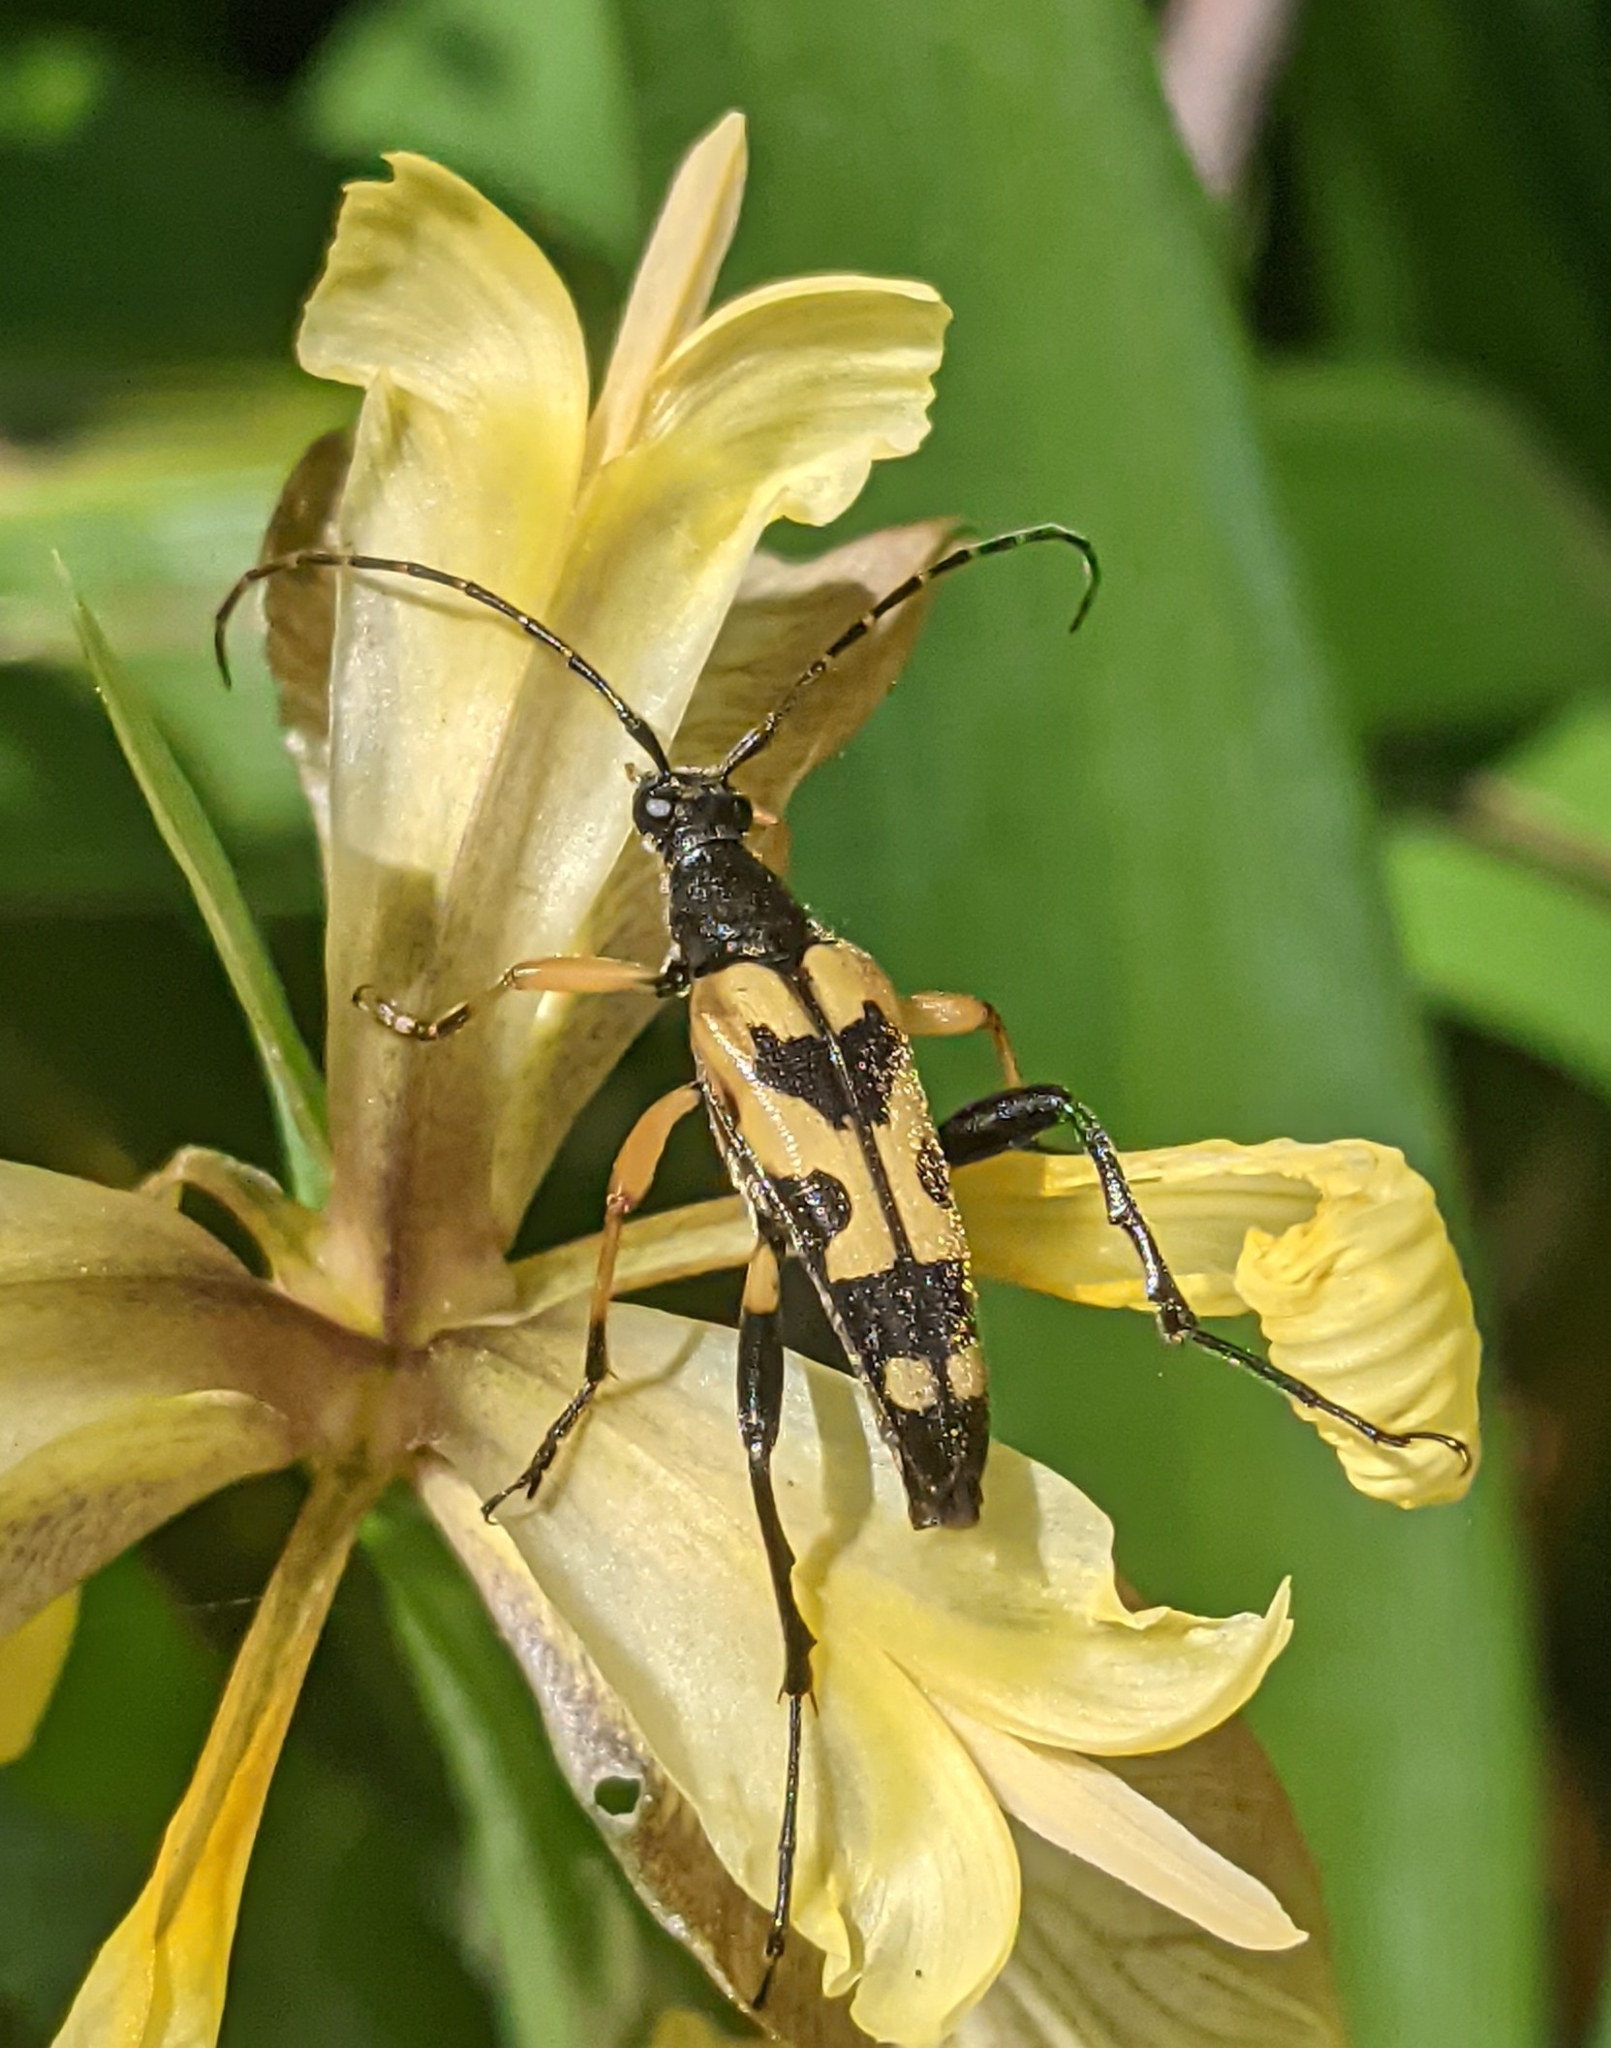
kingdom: Animalia
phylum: Arthropoda
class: Insecta
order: Coleoptera
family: Cerambycidae
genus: Rutpela
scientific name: Rutpela maculata
